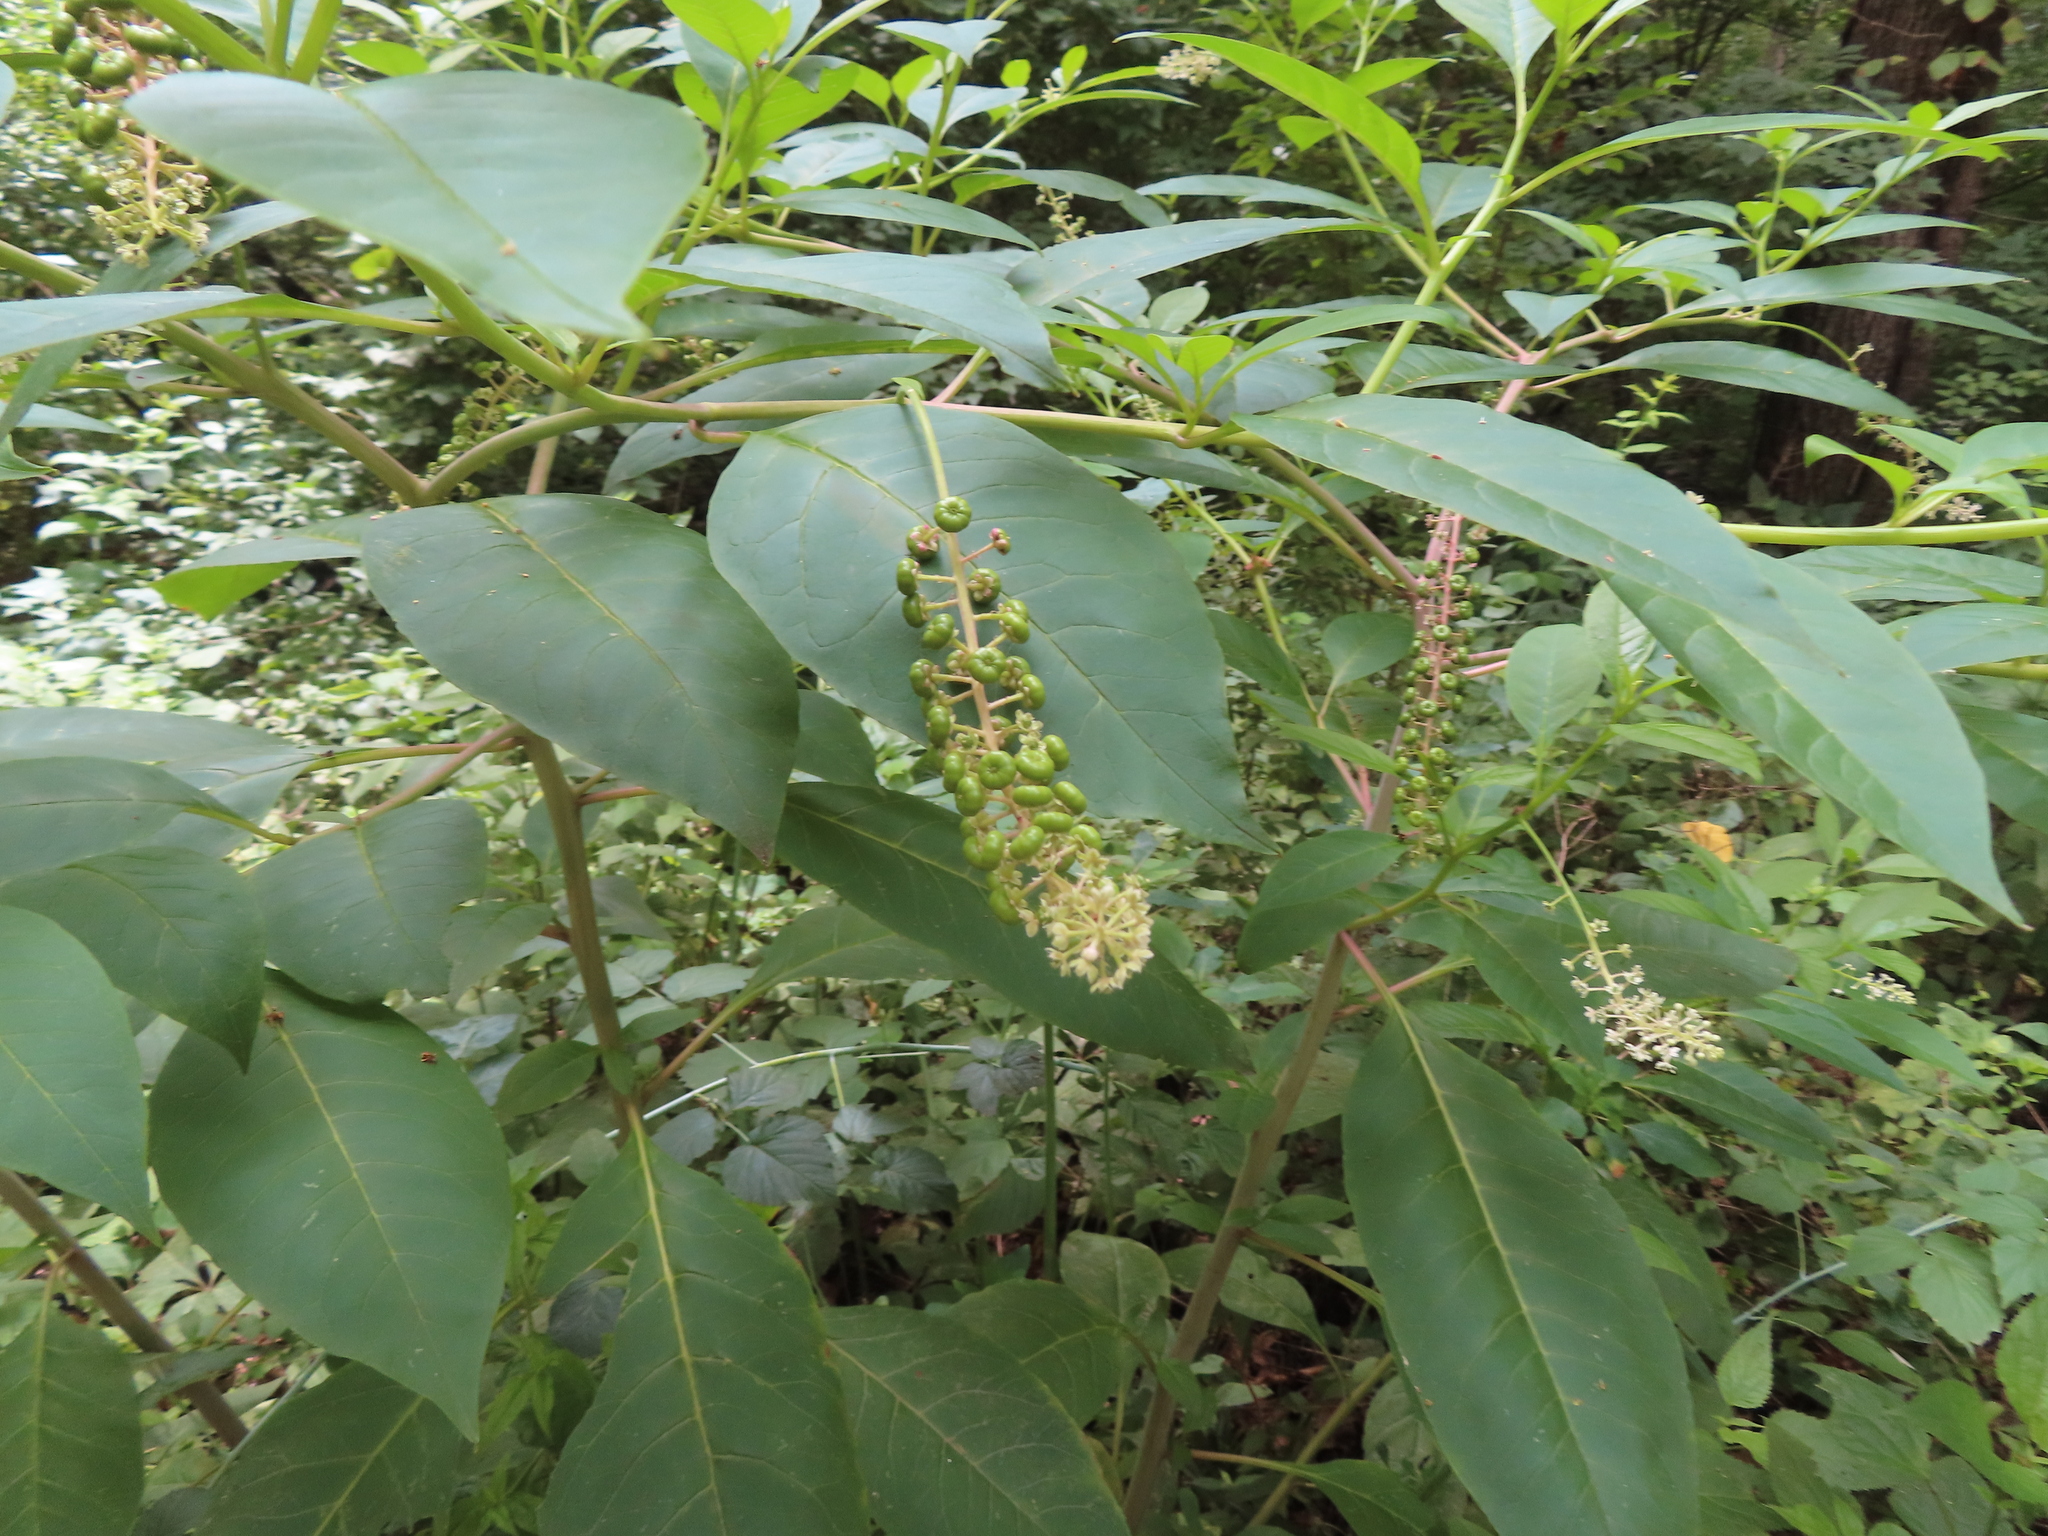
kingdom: Plantae
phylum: Tracheophyta
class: Magnoliopsida
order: Caryophyllales
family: Phytolaccaceae
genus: Phytolacca
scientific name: Phytolacca americana
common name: American pokeweed
